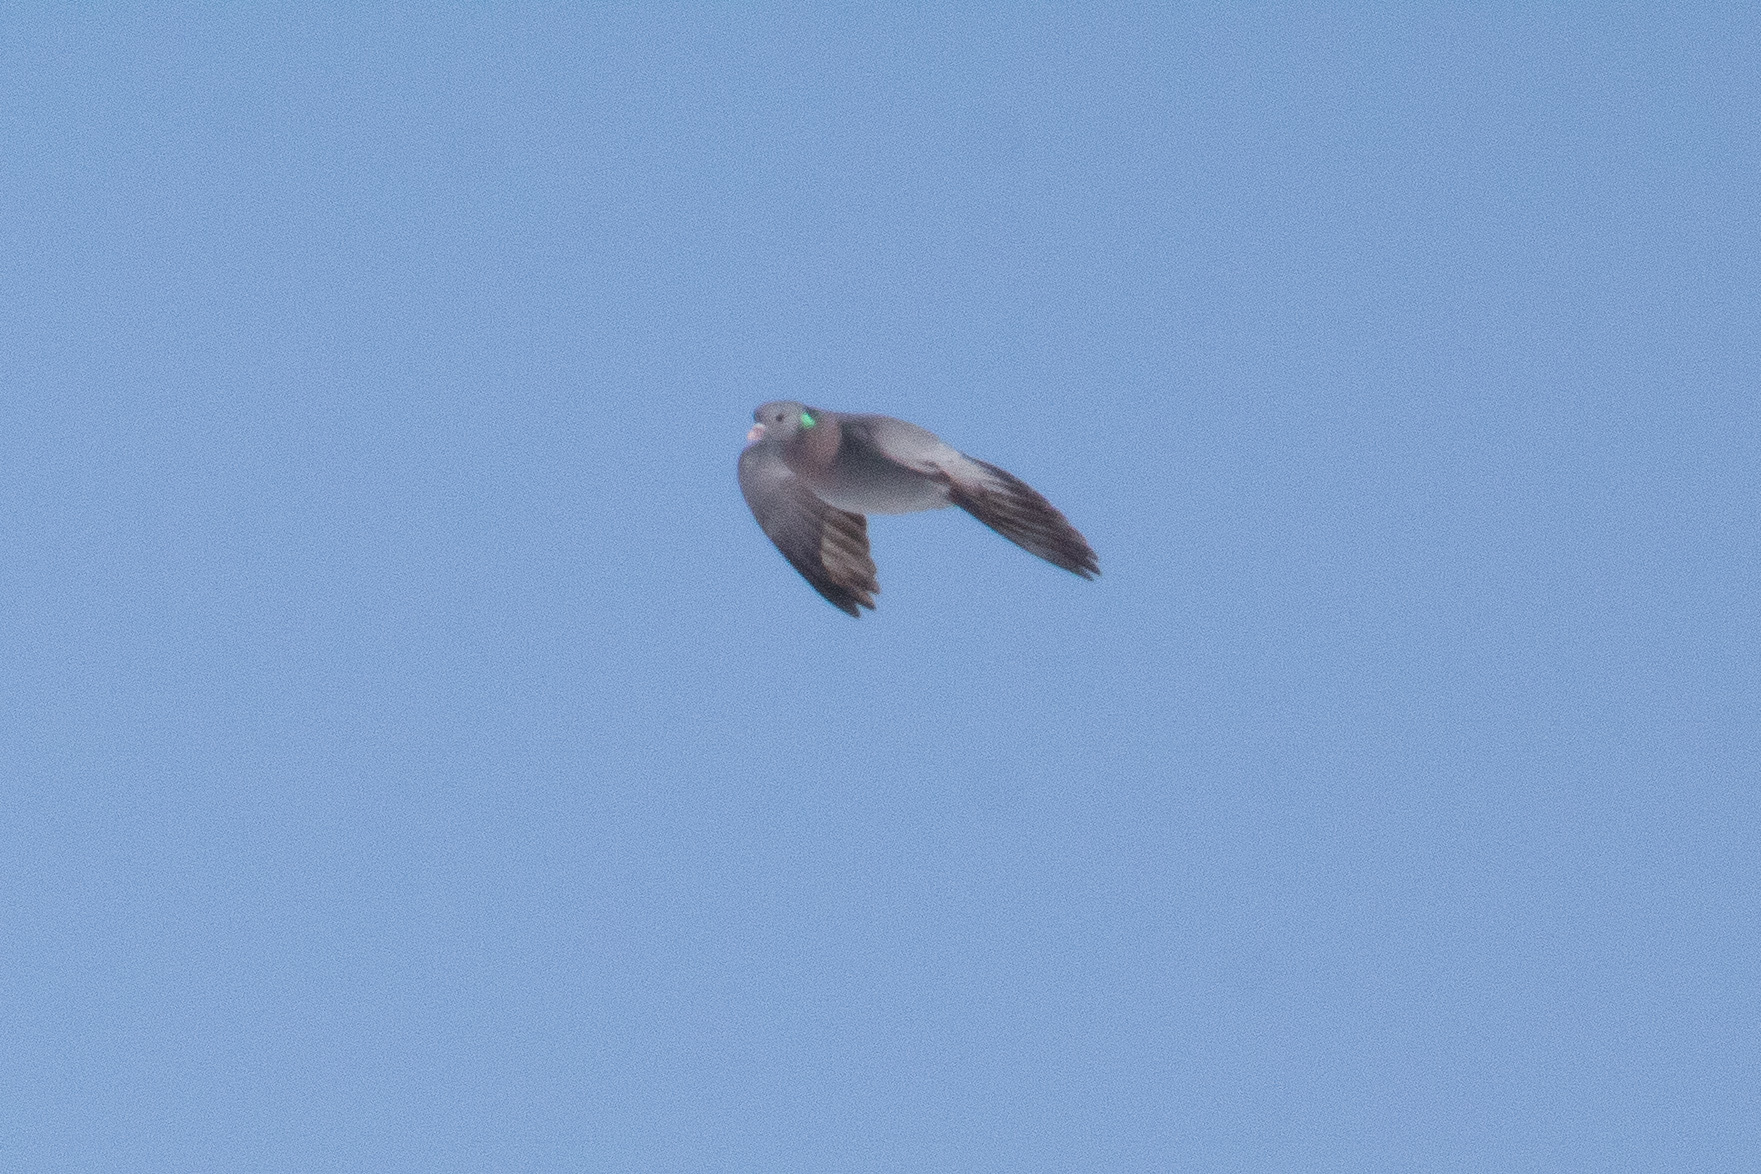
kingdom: Animalia
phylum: Chordata
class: Aves
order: Columbiformes
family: Columbidae
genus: Columba
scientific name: Columba oenas
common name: Stock dove
